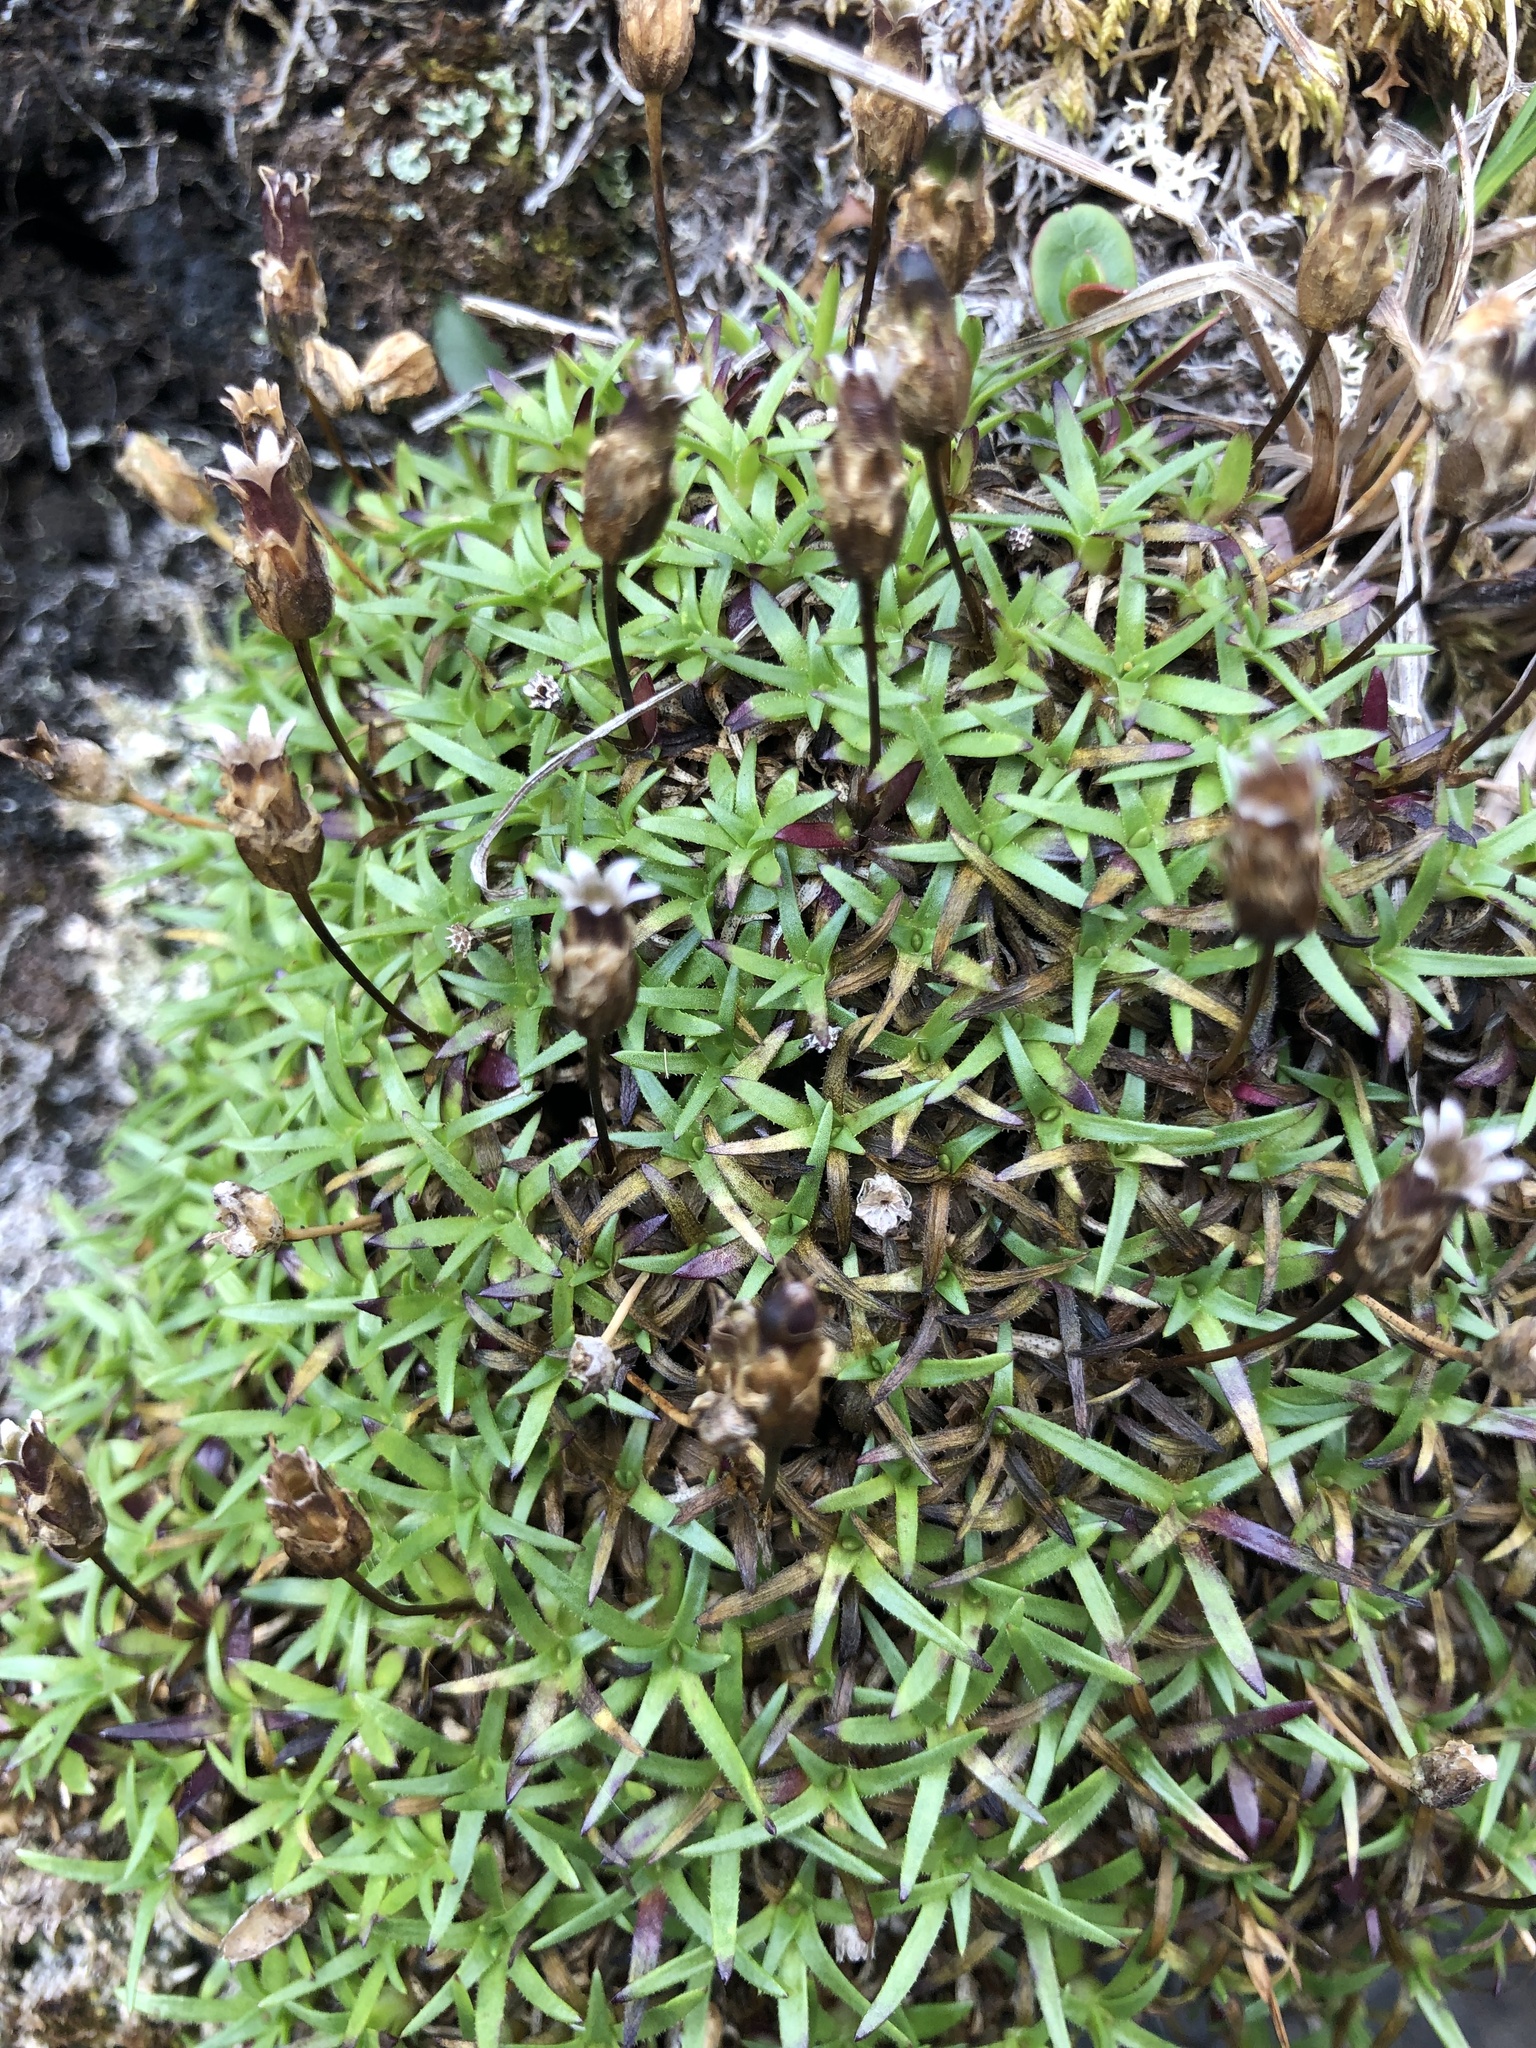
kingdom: Plantae
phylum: Tracheophyta
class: Magnoliopsida
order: Caryophyllales
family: Caryophyllaceae
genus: Silene
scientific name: Silene acaulis
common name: Moss campion
